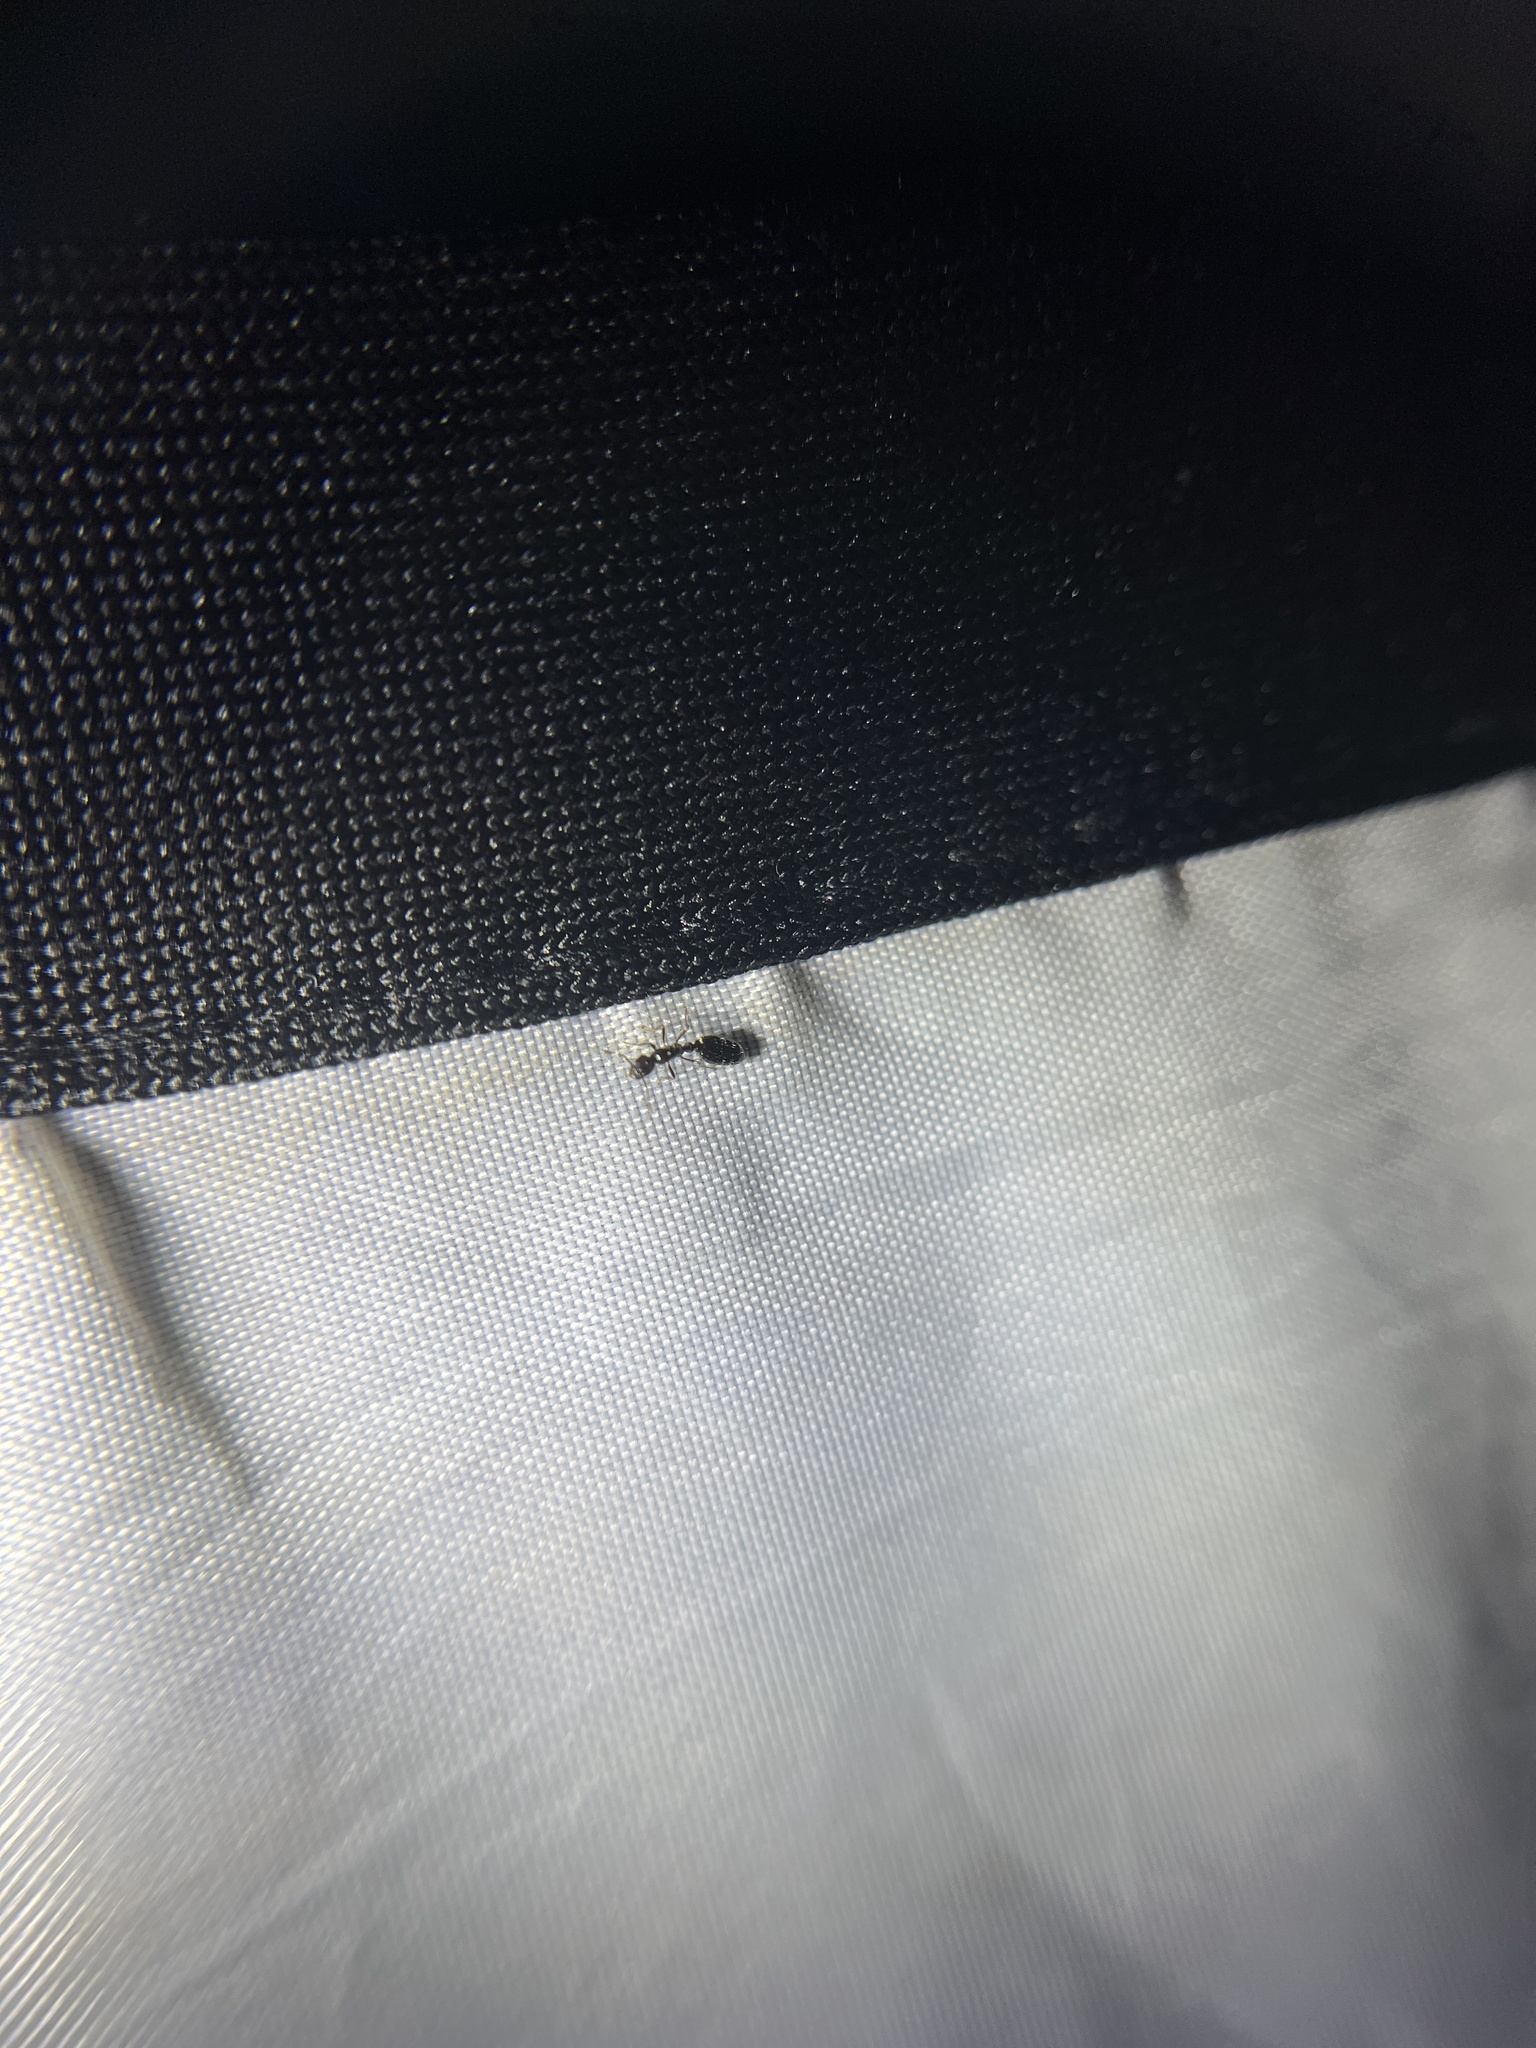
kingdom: Animalia
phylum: Arthropoda
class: Insecta
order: Hymenoptera
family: Formicidae
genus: Monomorium
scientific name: Monomorium
